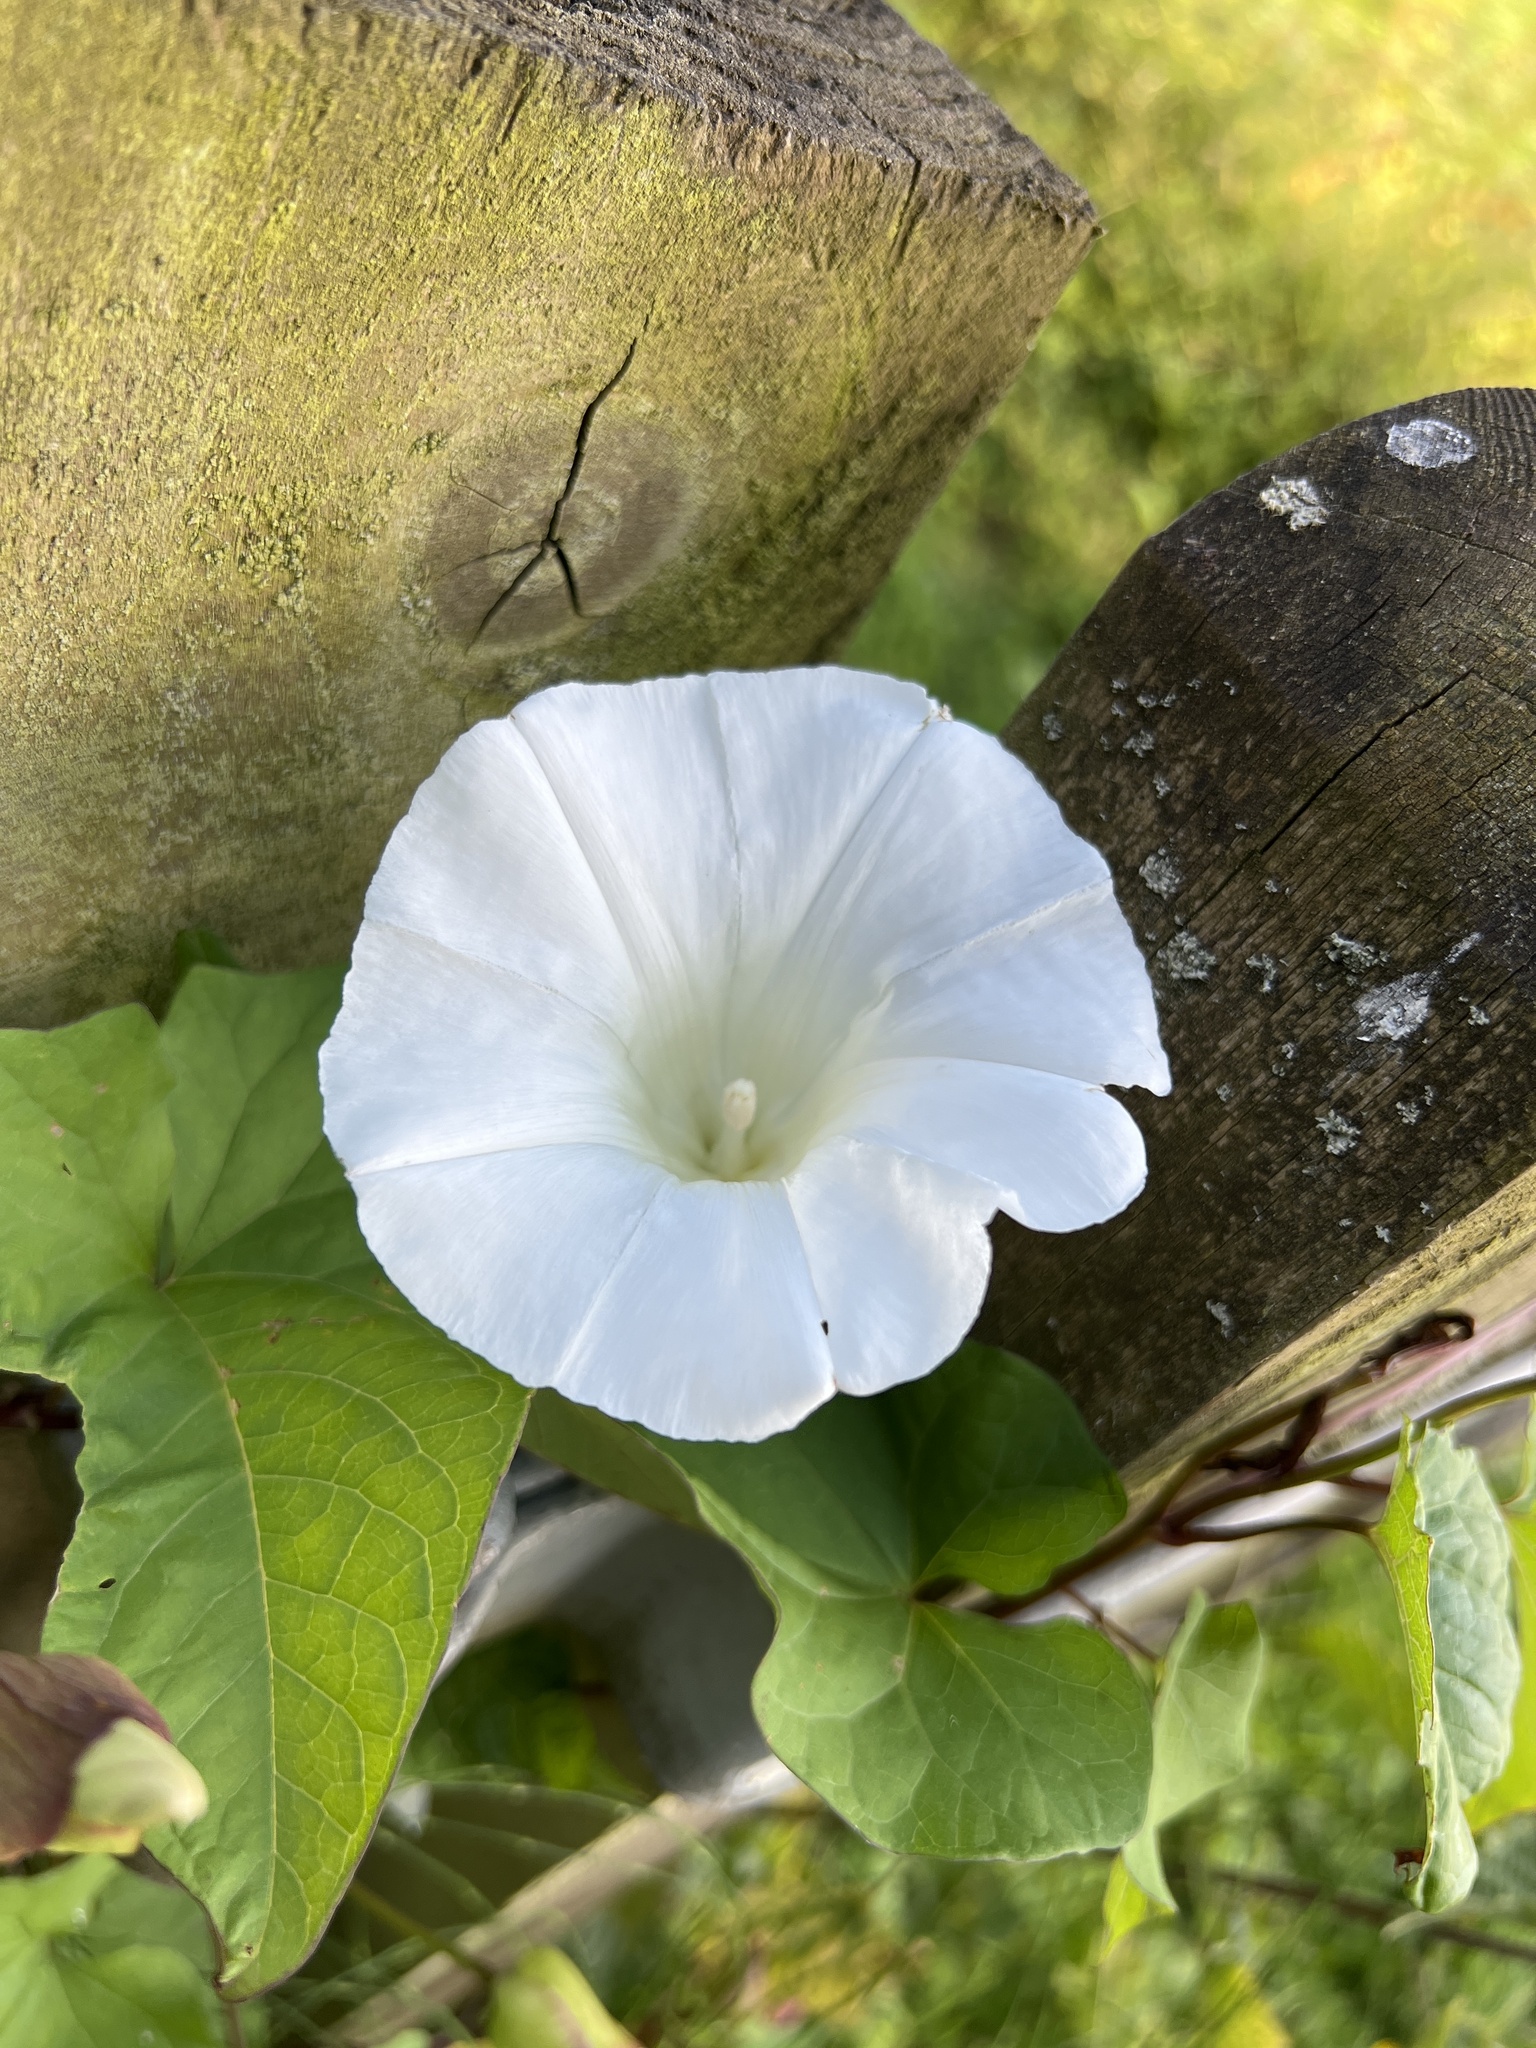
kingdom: Plantae
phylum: Tracheophyta
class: Magnoliopsida
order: Solanales
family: Convolvulaceae
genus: Calystegia
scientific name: Calystegia silvatica
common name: Large bindweed
